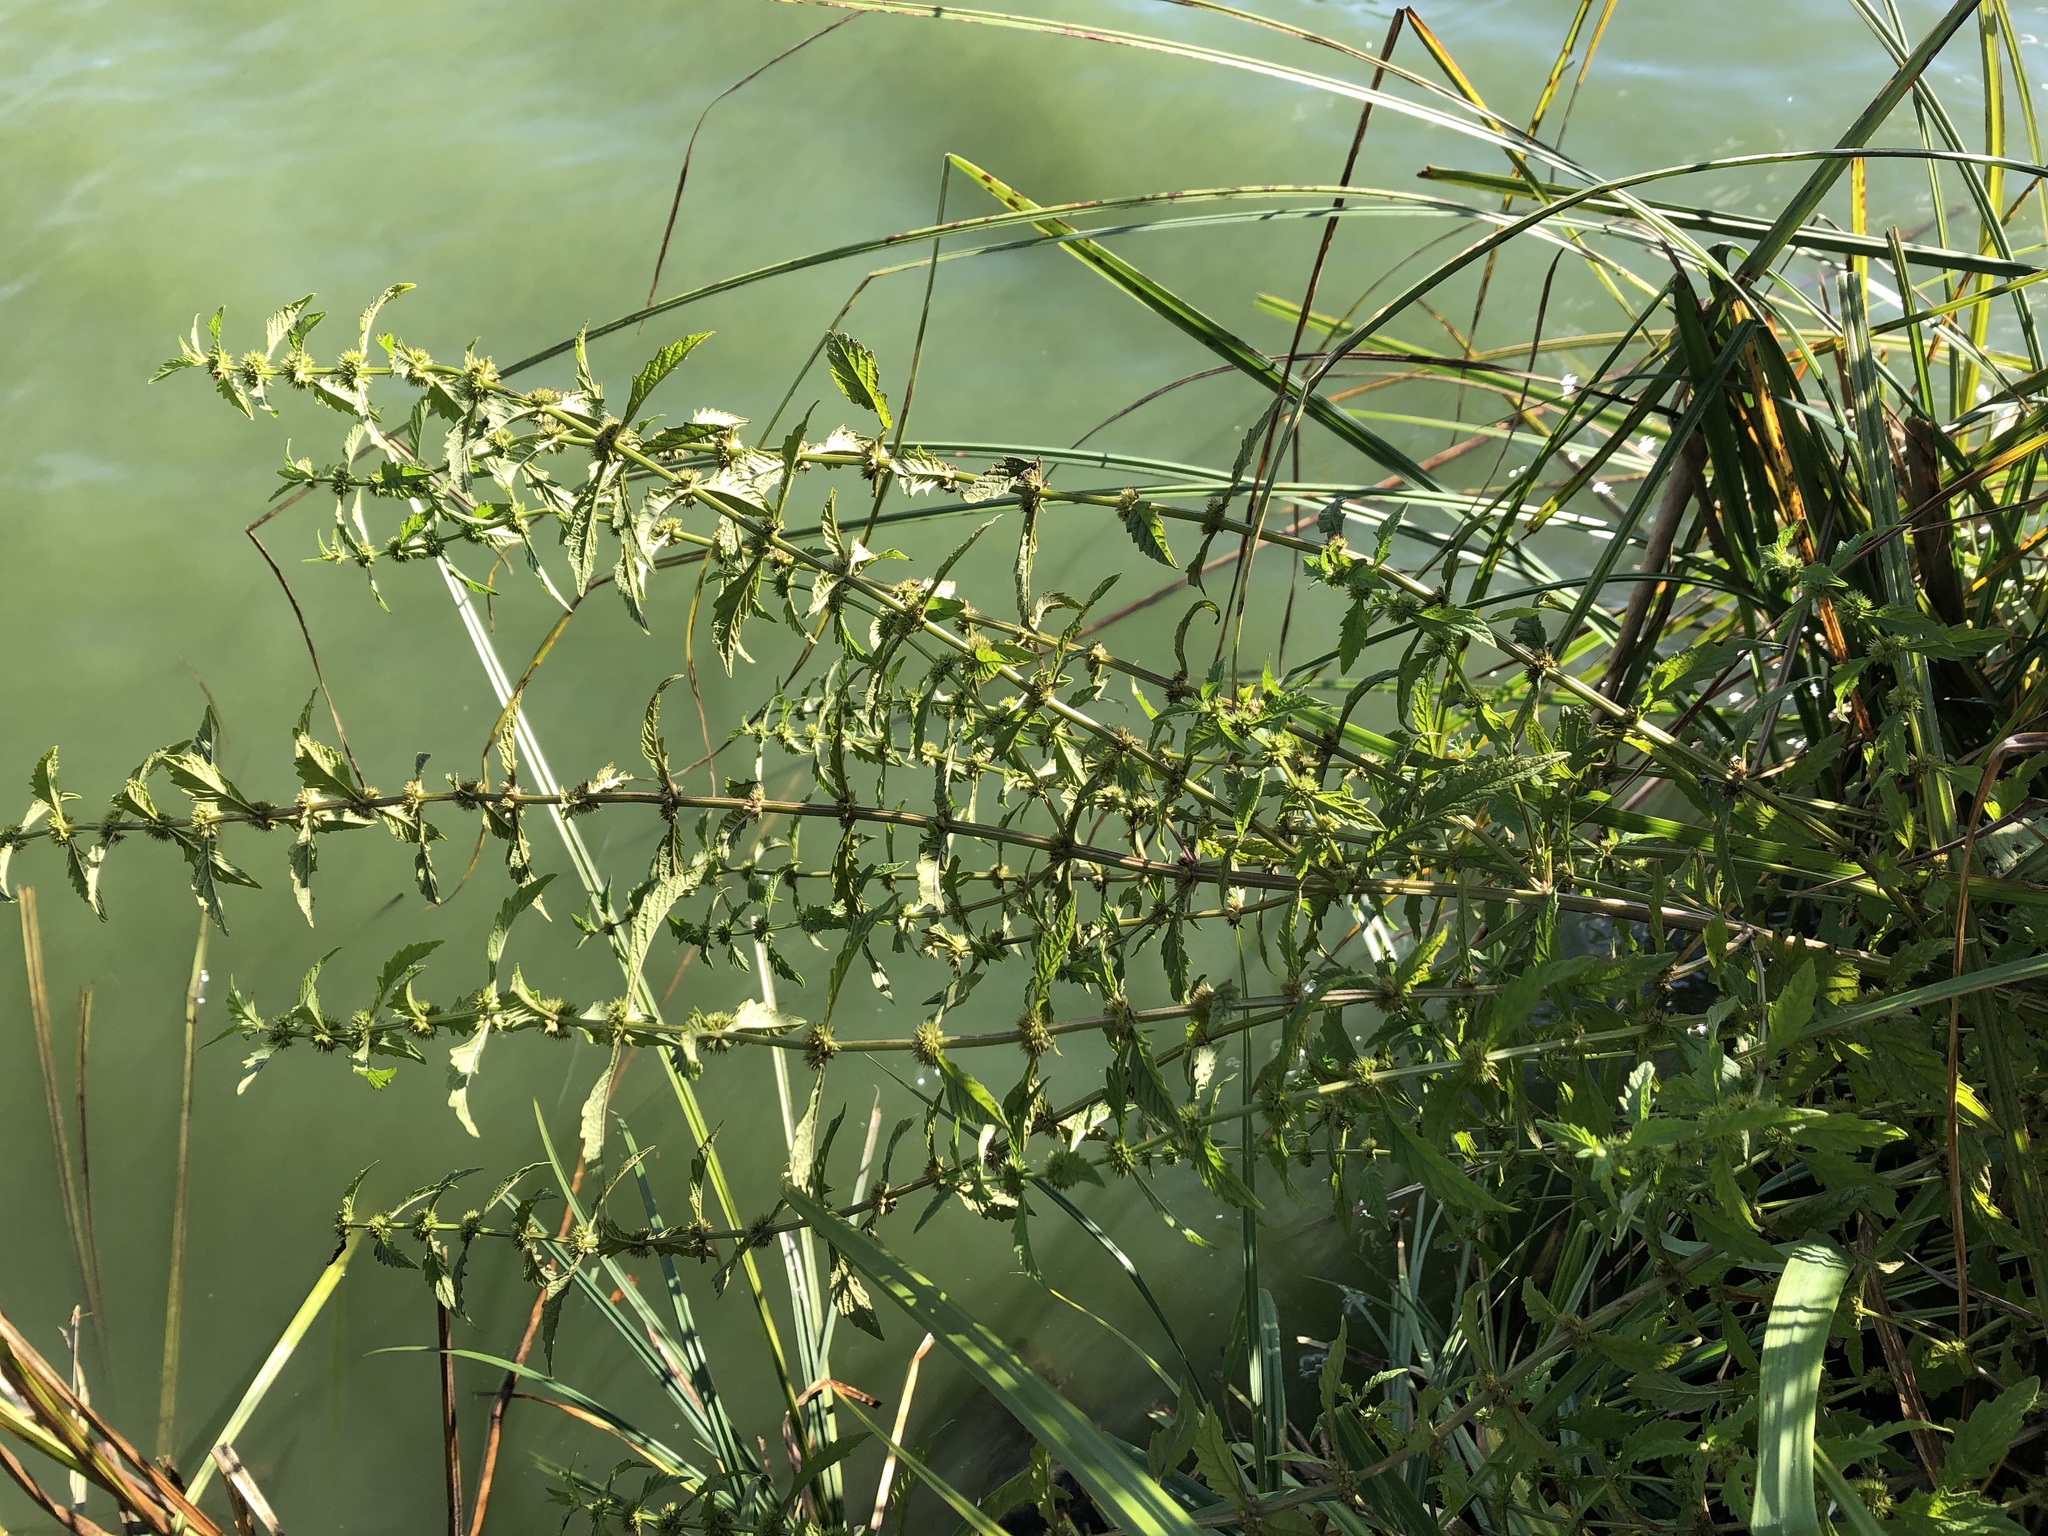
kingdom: Plantae
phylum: Tracheophyta
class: Magnoliopsida
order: Lamiales
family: Lamiaceae
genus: Lycopus
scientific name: Lycopus europaeus
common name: European bugleweed
